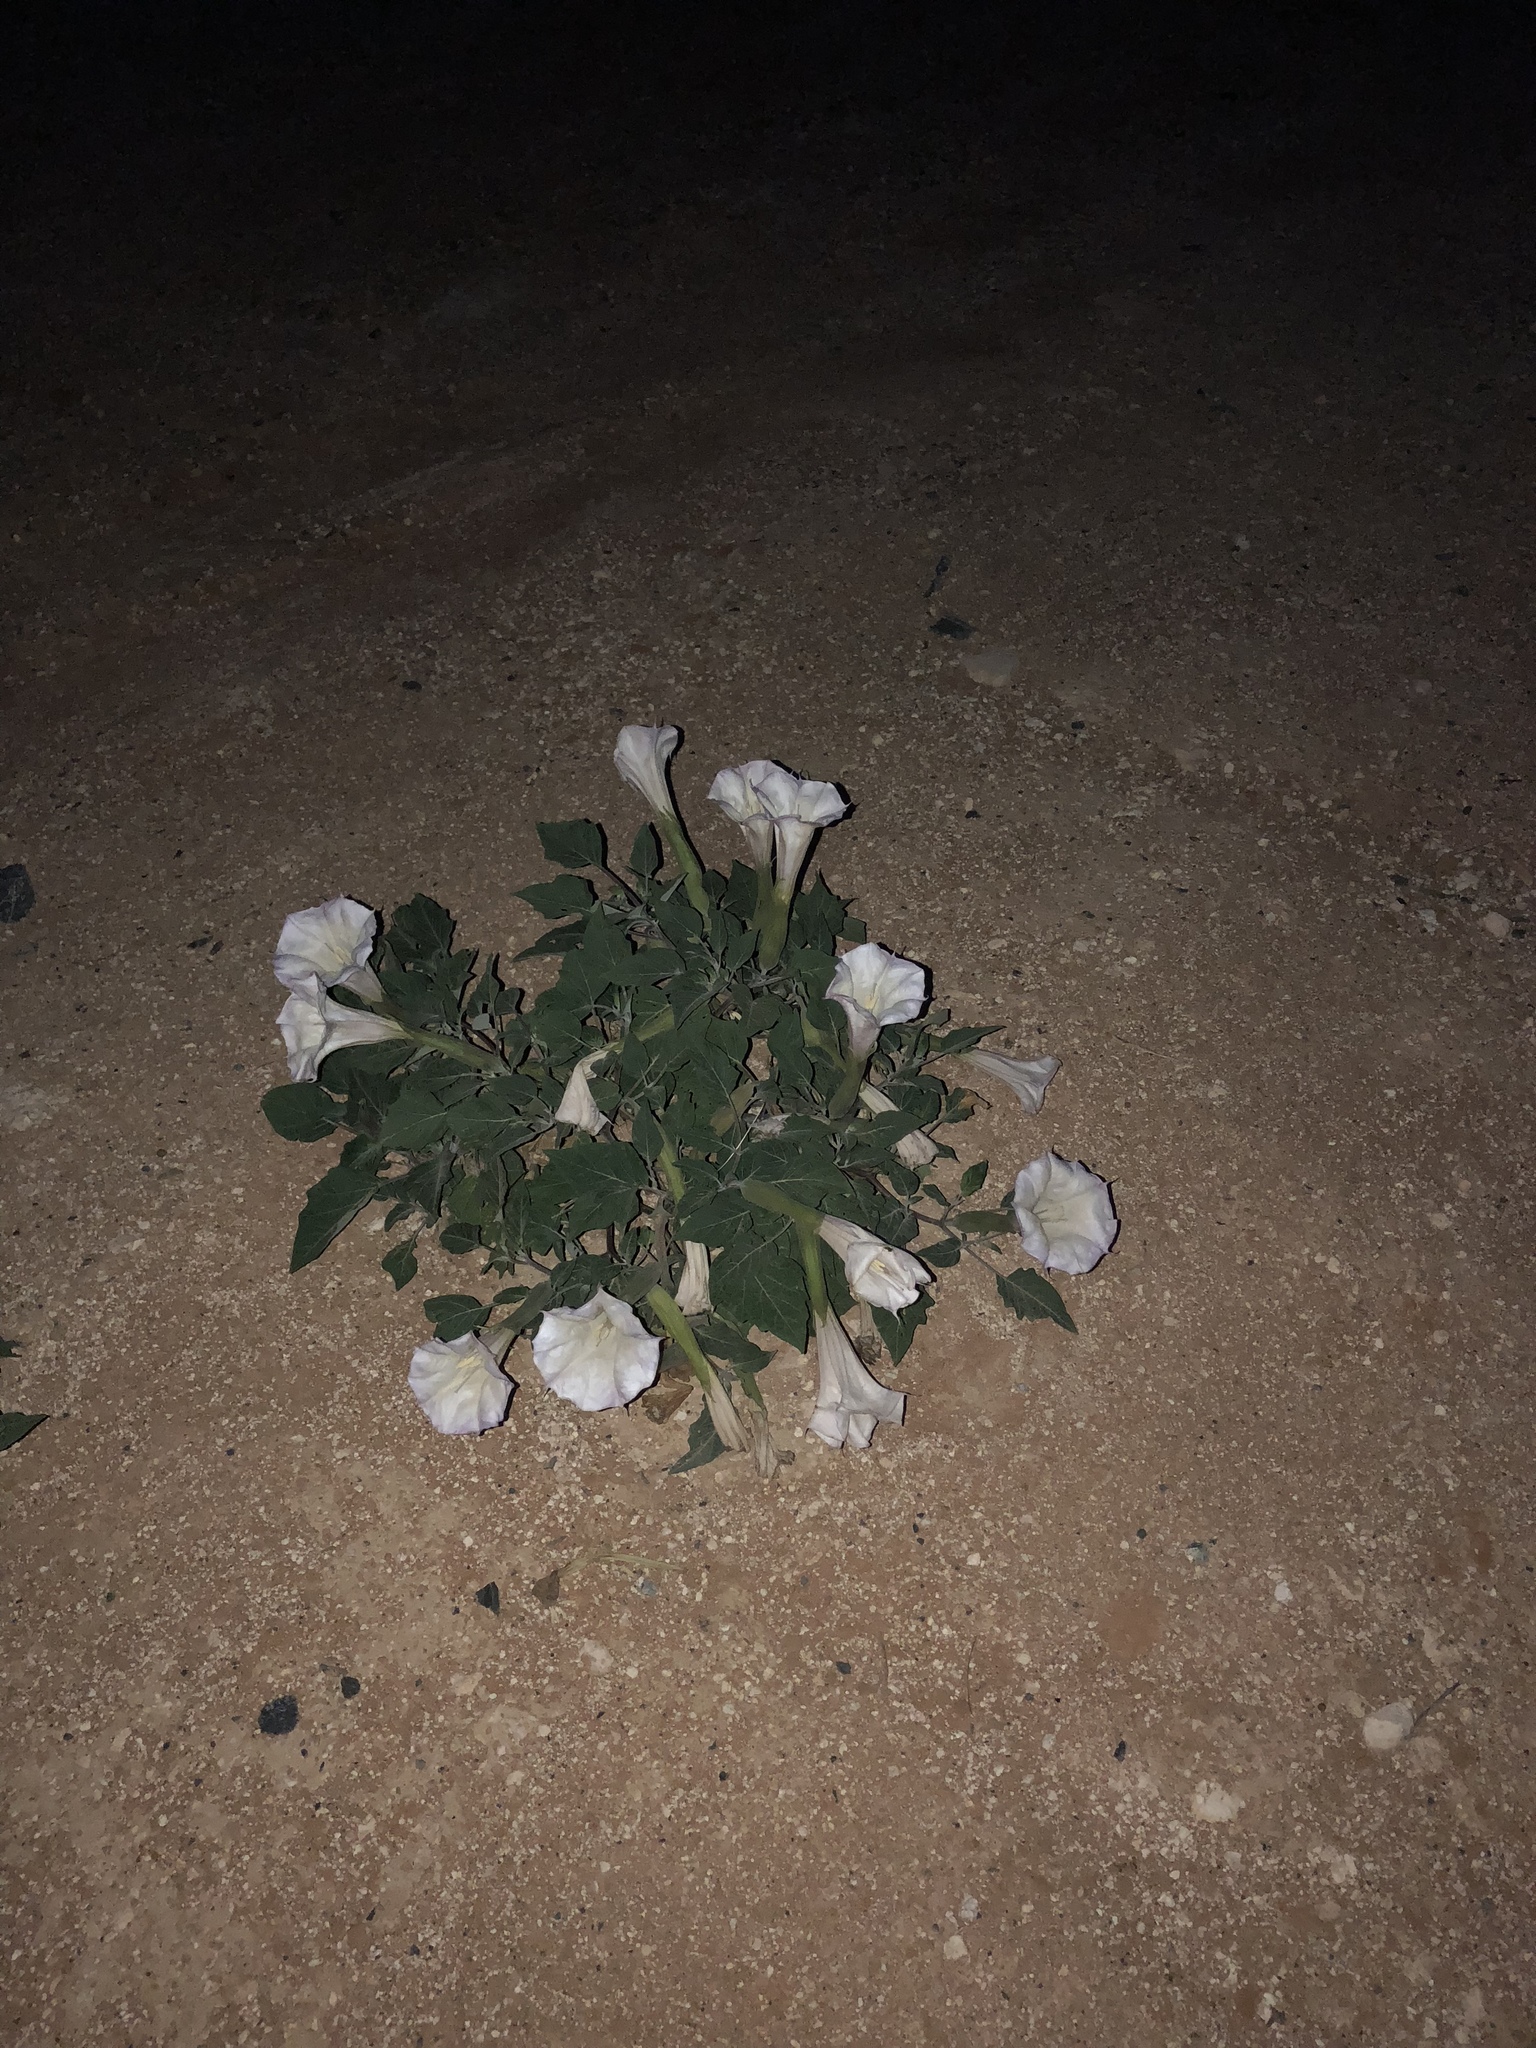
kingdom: Plantae
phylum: Tracheophyta
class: Magnoliopsida
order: Solanales
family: Solanaceae
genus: Datura
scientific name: Datura wrightii
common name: Sacred thorn-apple
